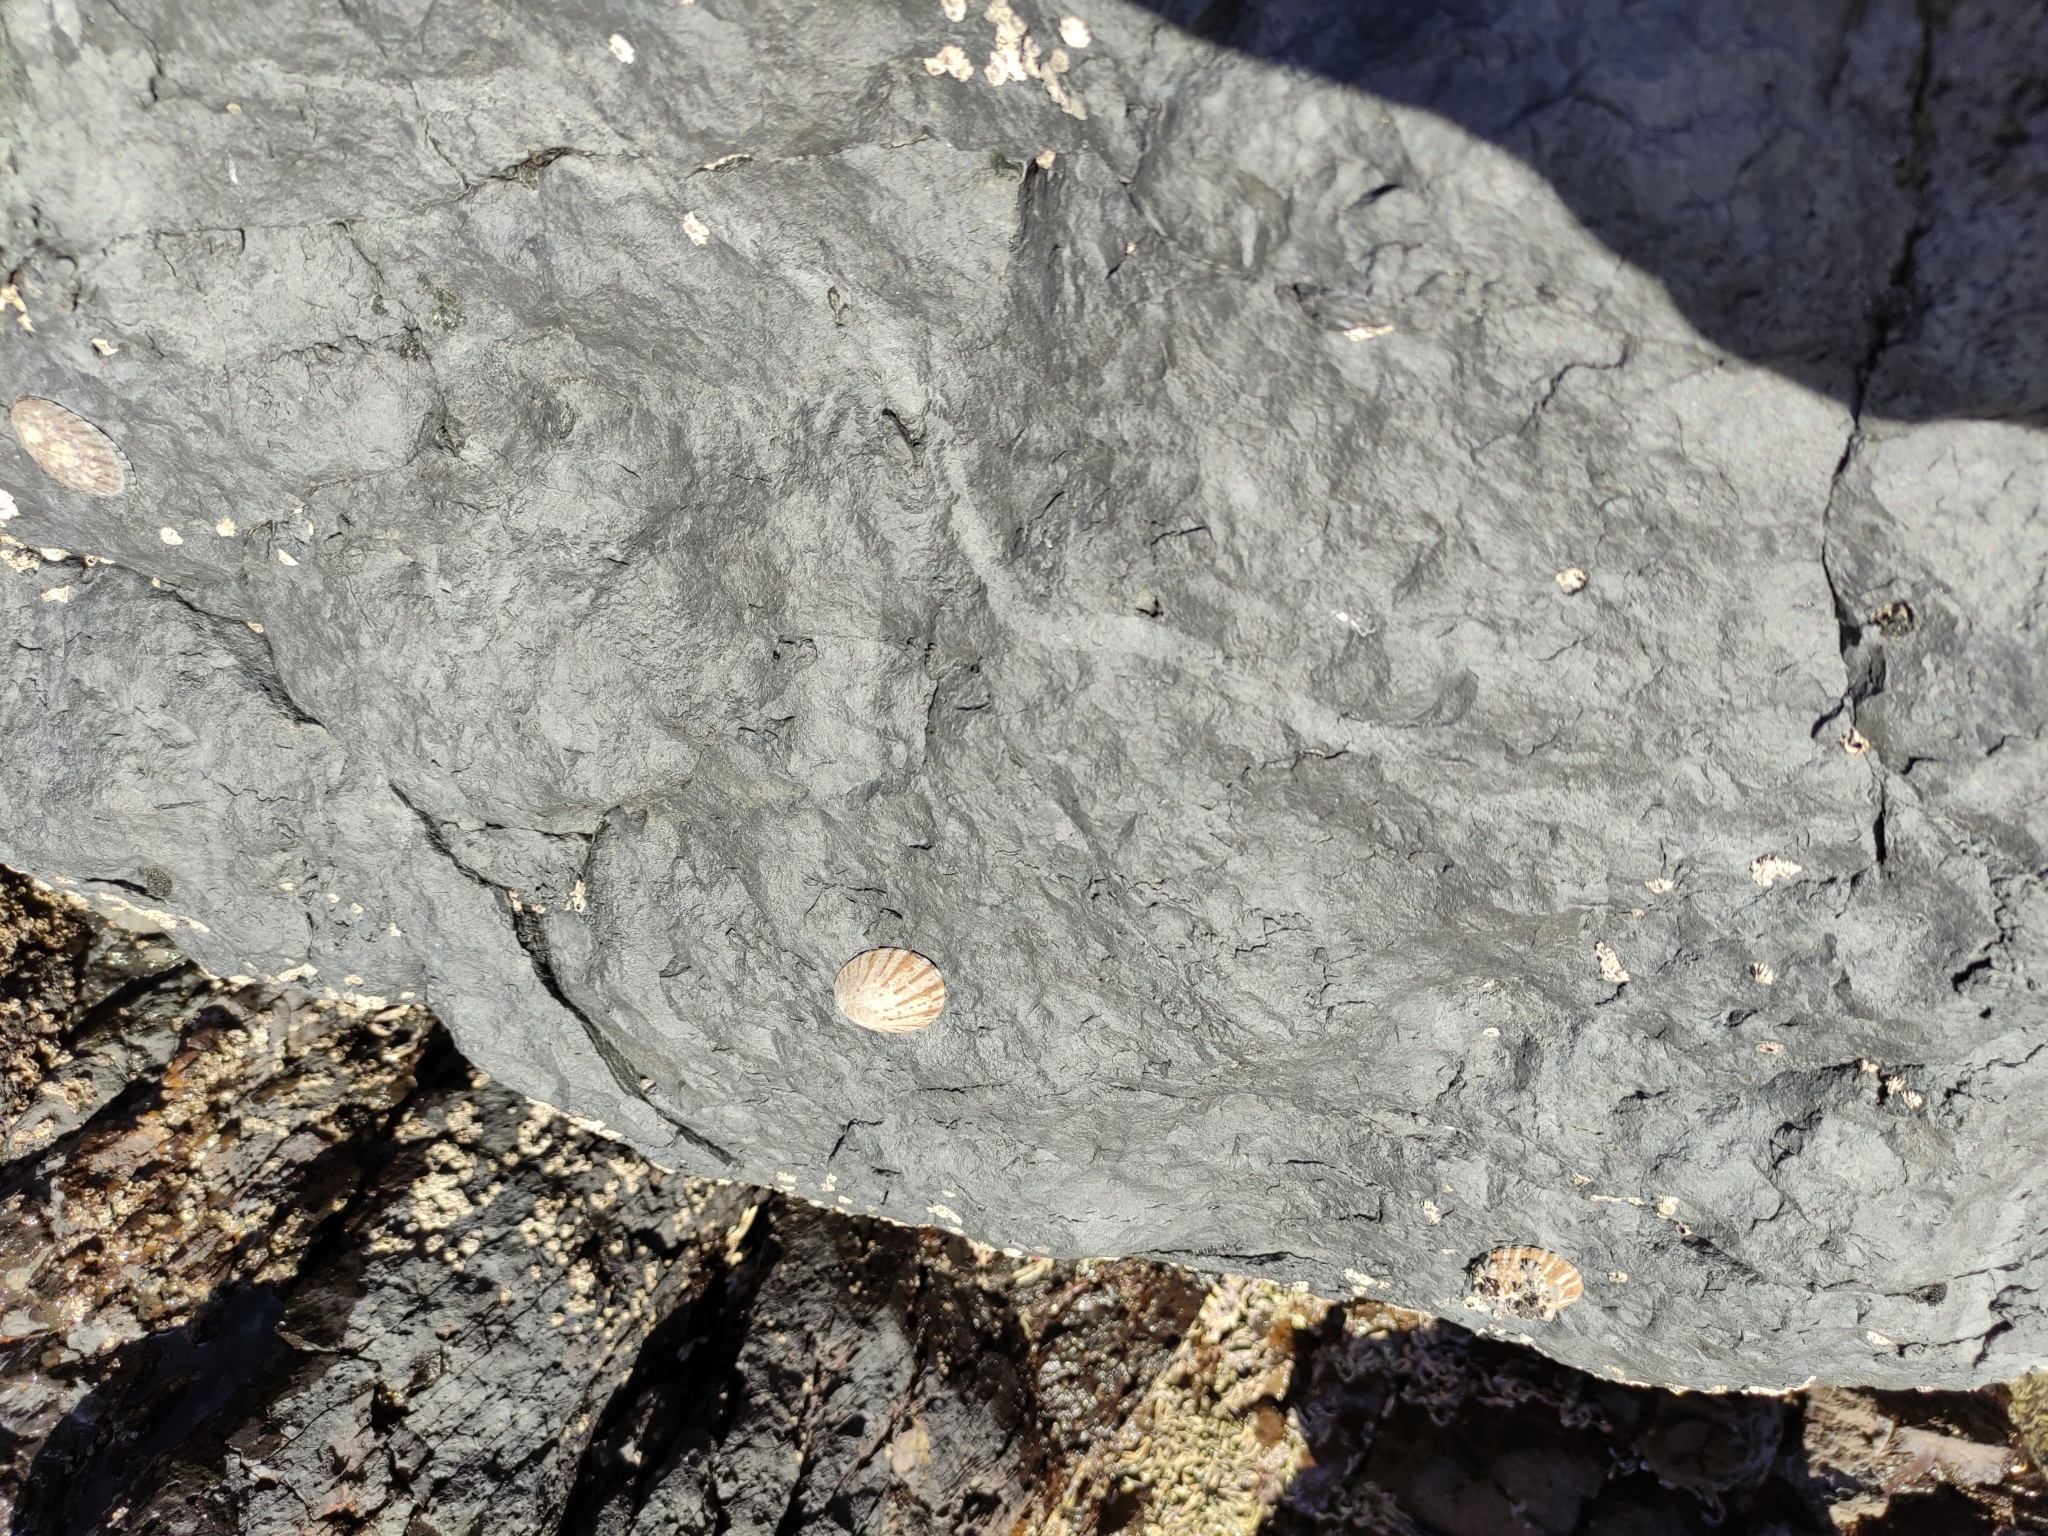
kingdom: Animalia
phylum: Mollusca
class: Gastropoda
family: Nacellidae
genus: Cellana
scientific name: Cellana radians
